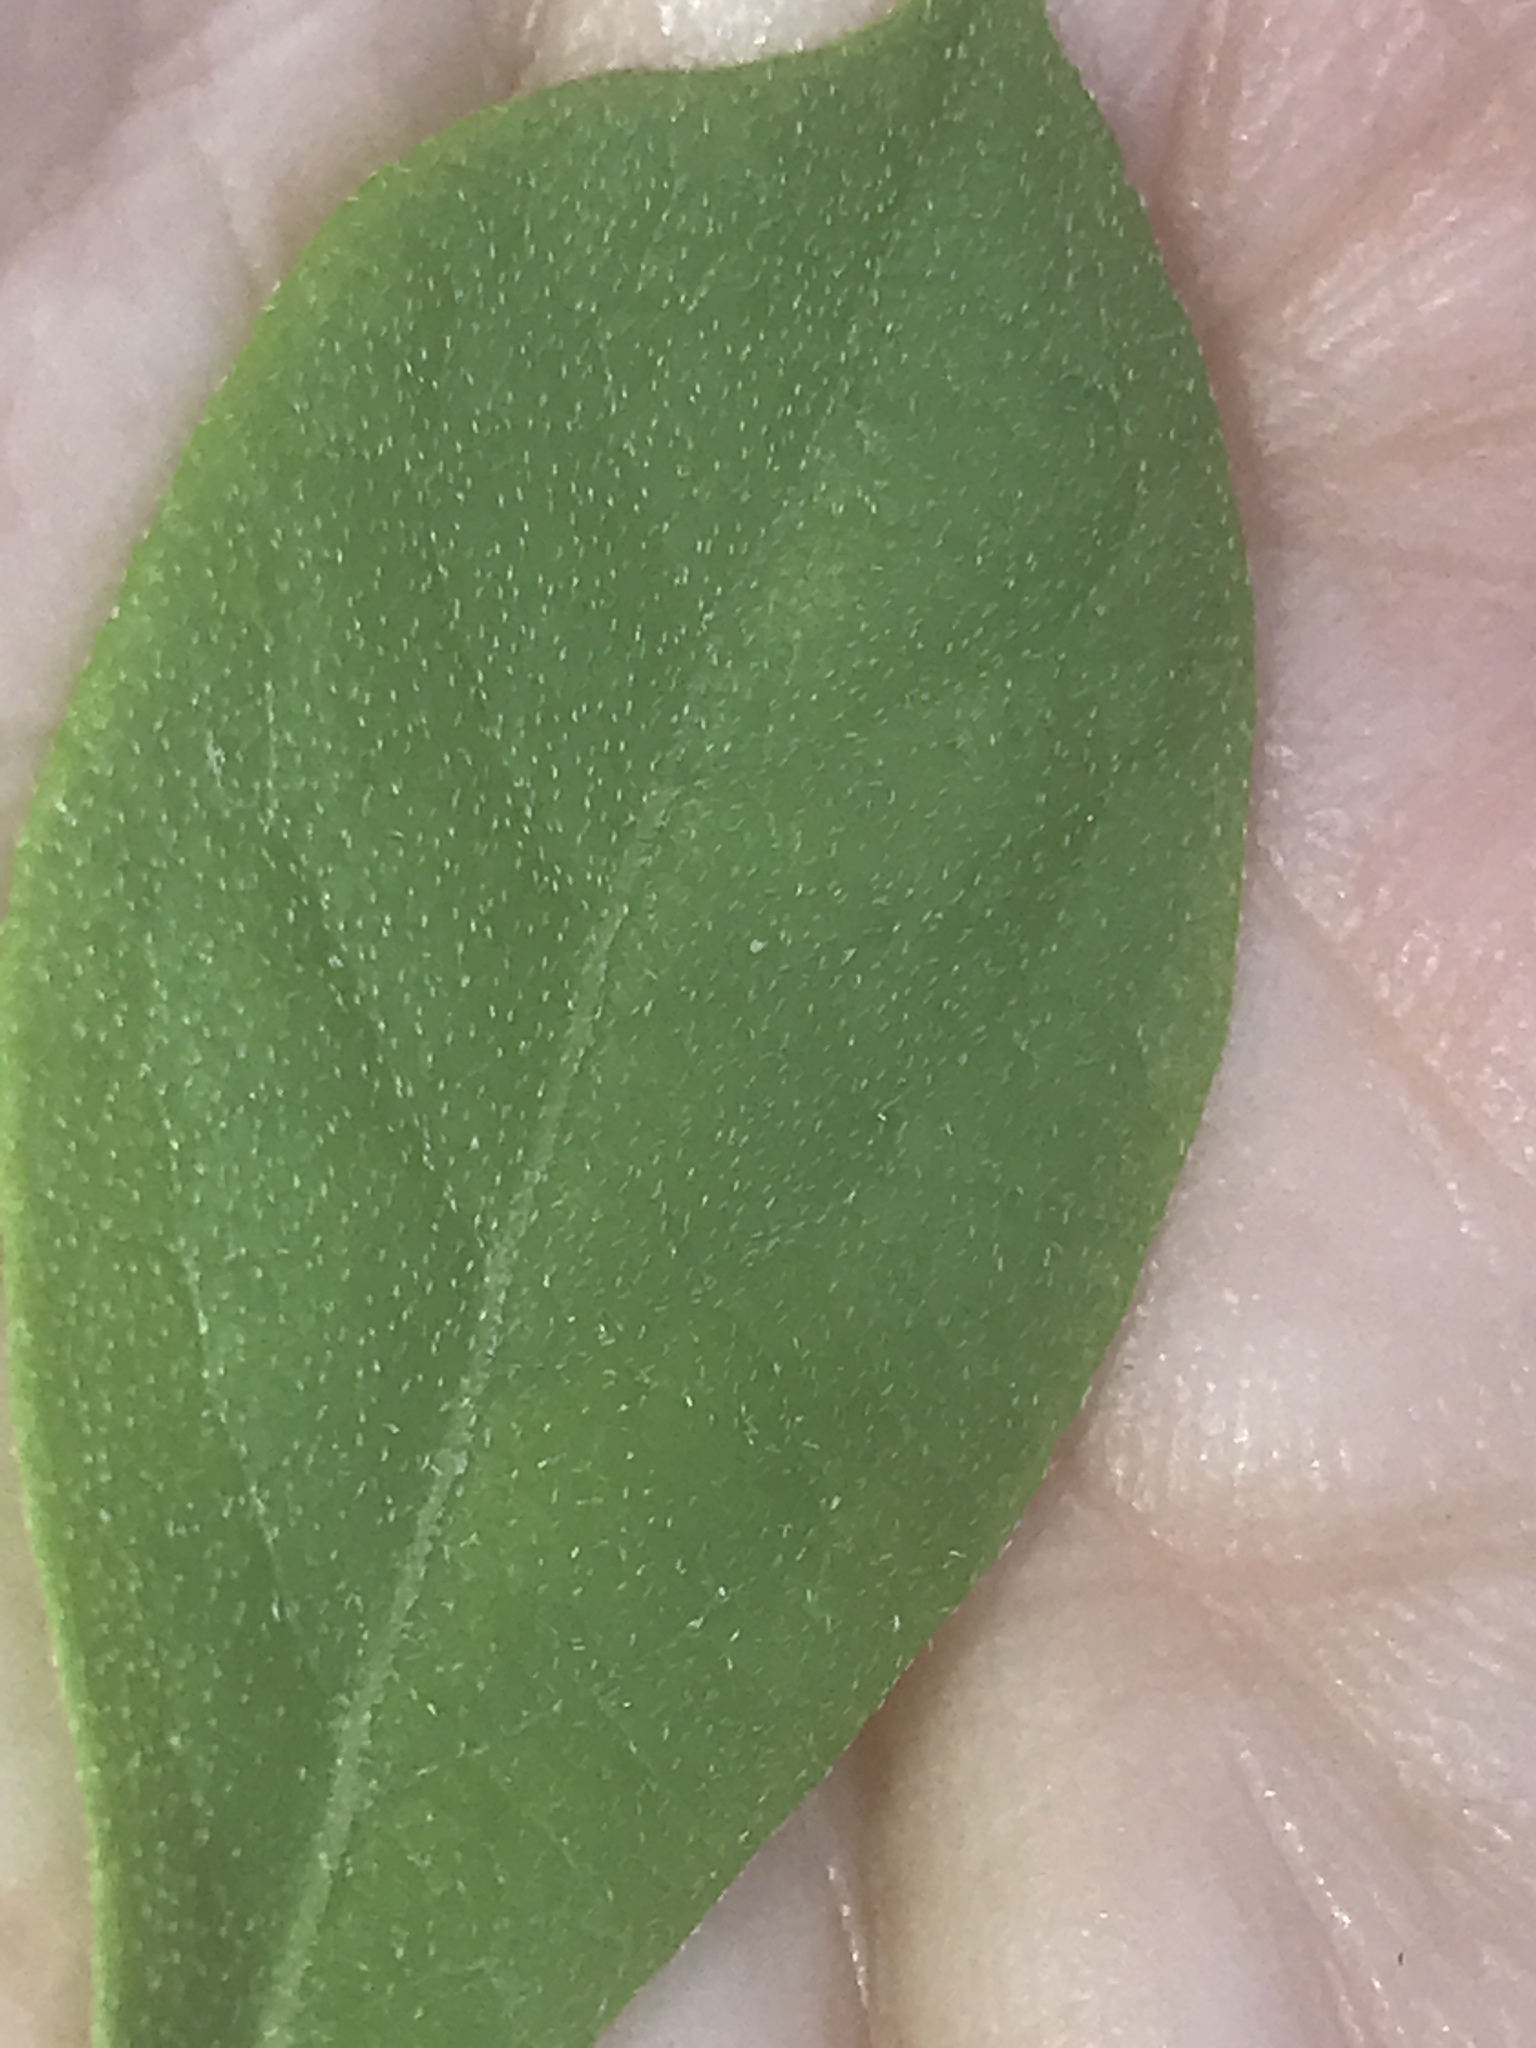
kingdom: Plantae
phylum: Tracheophyta
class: Magnoliopsida
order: Ericales
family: Ericaceae
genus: Lyonia
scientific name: Lyonia ligustrina
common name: Maleberry
